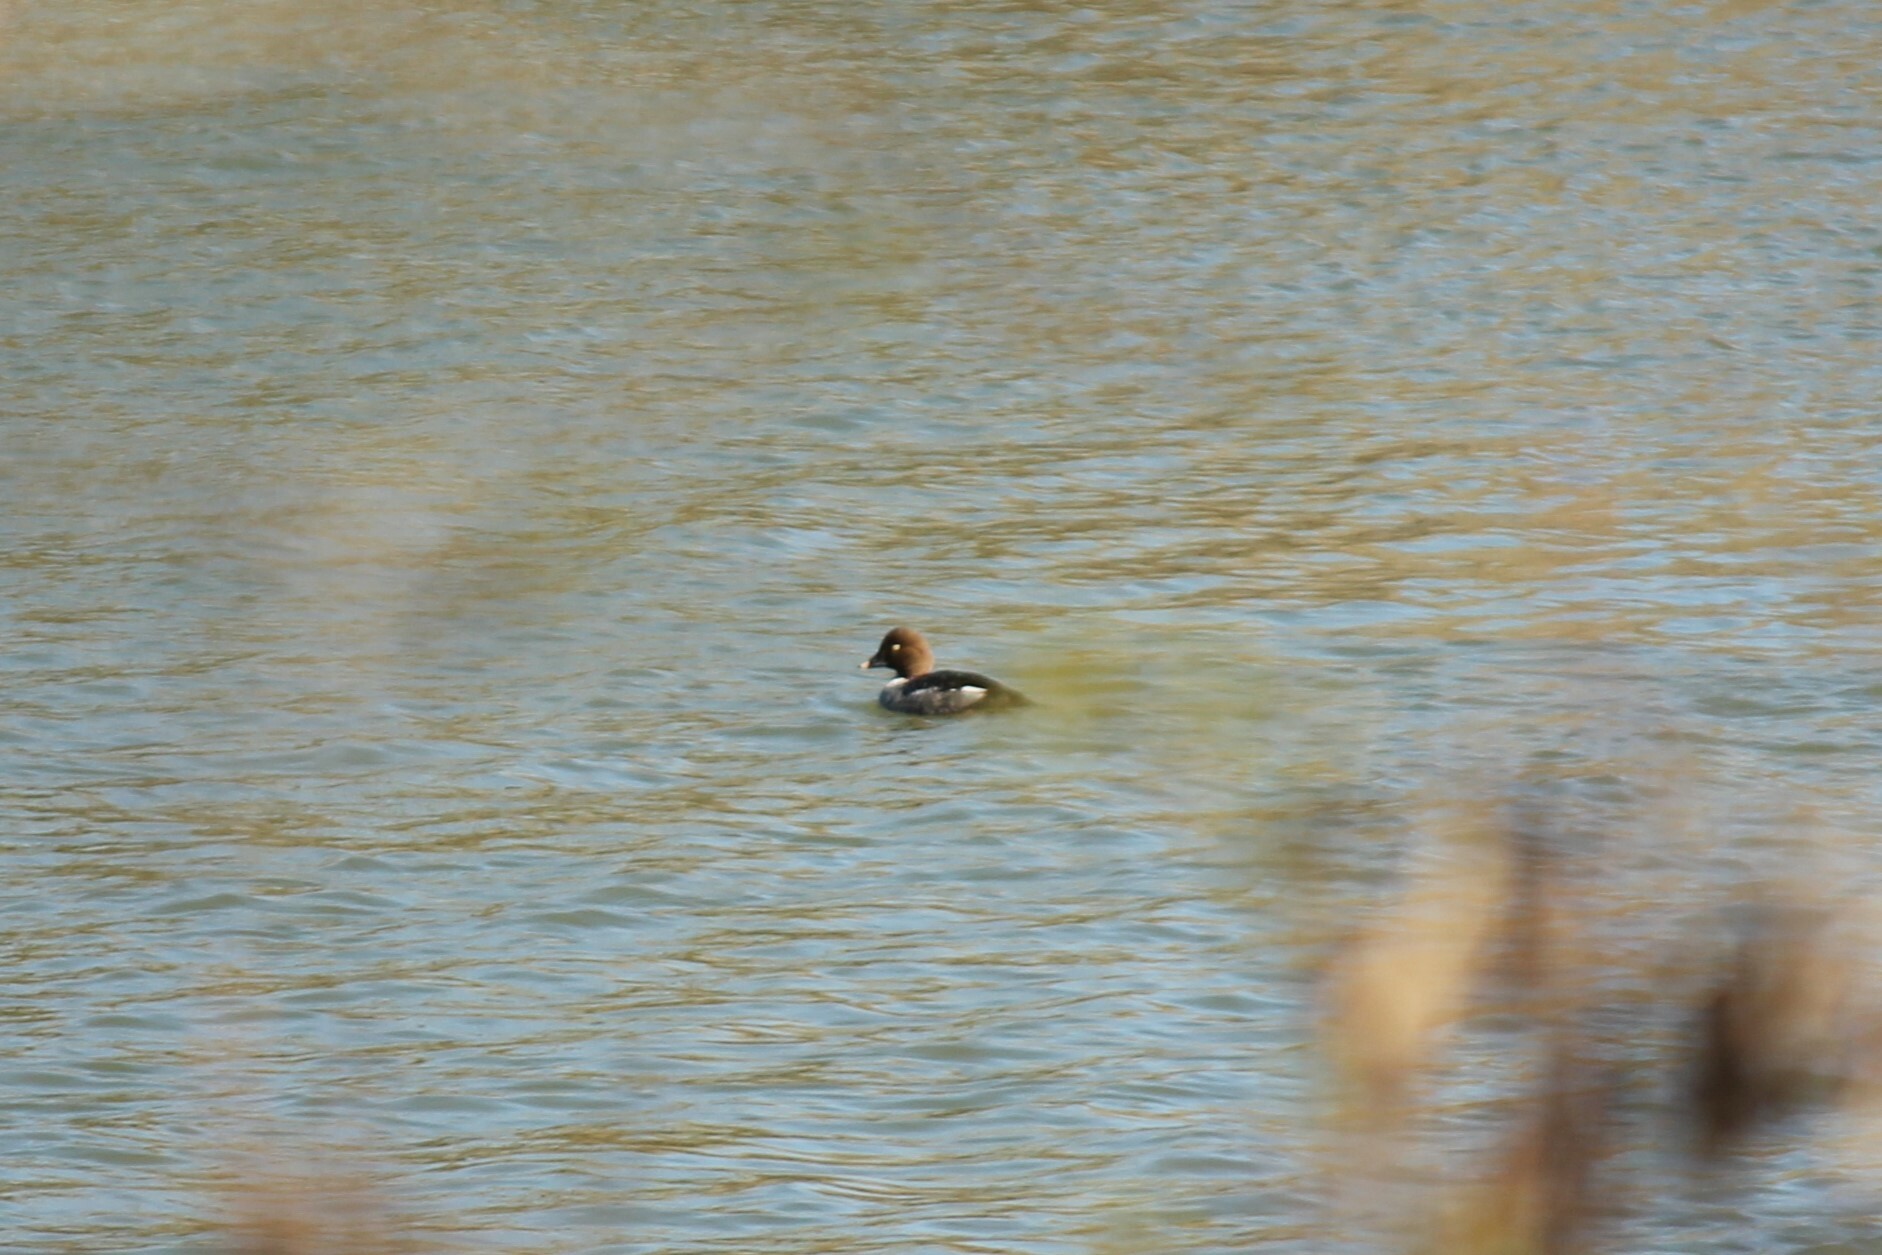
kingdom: Animalia
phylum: Chordata
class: Aves
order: Anseriformes
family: Anatidae
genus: Bucephala
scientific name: Bucephala clangula
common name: Common goldeneye
